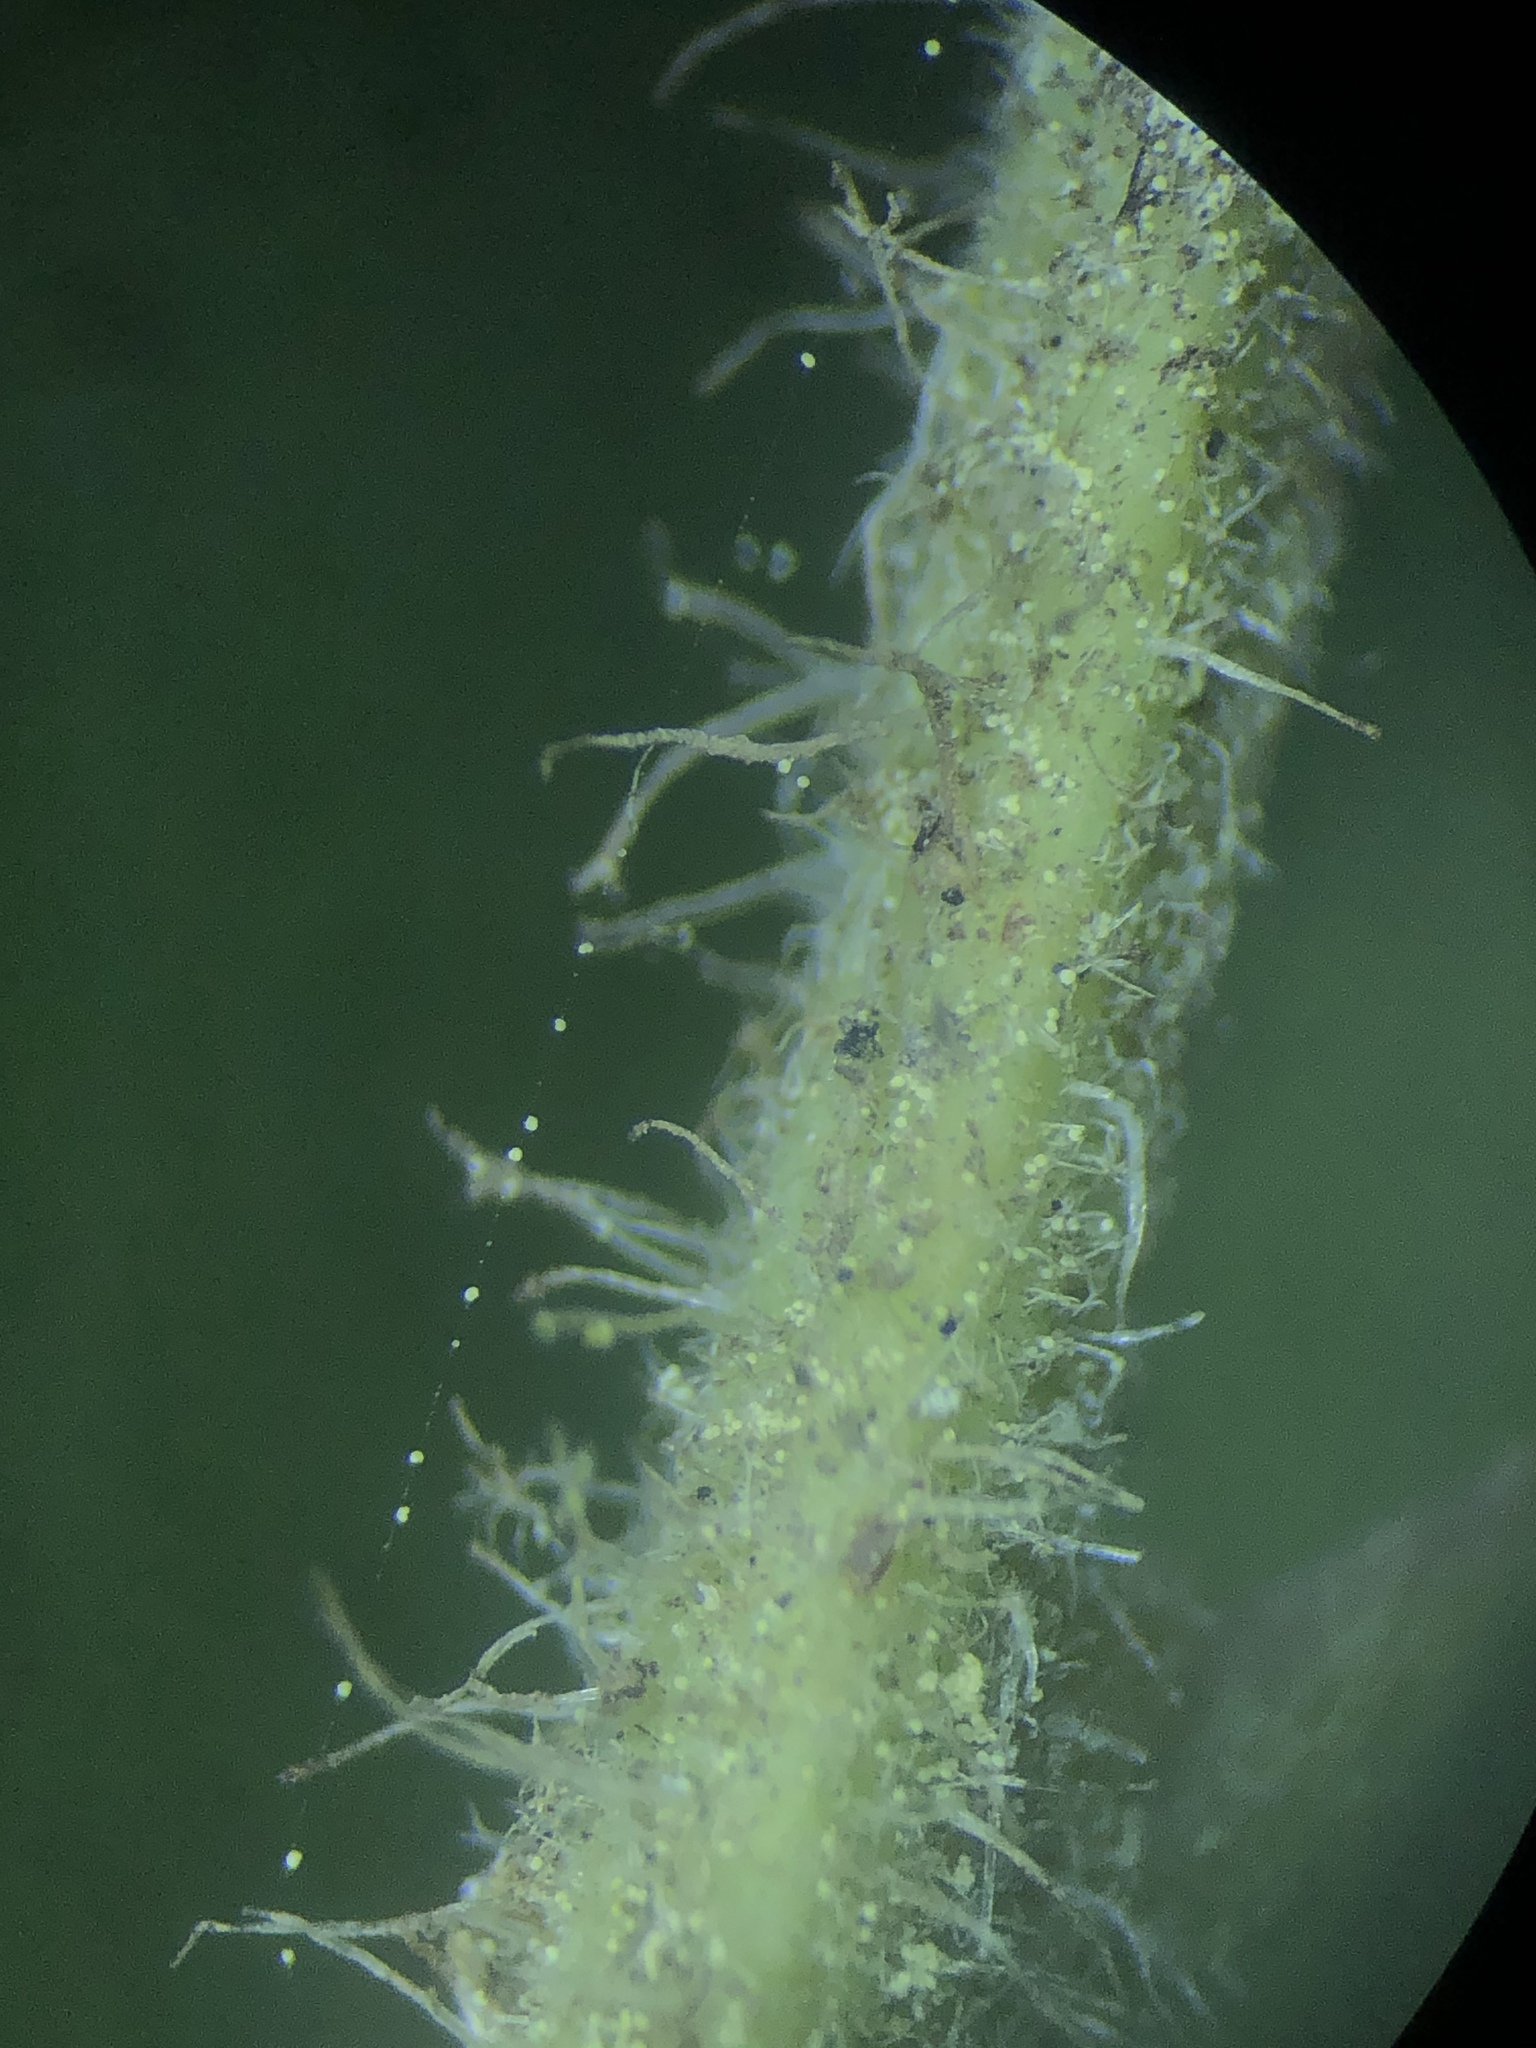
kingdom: Plantae
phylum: Tracheophyta
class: Magnoliopsida
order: Ericales
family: Ericaceae
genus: Arctostaphylos
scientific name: Arctostaphylos glandulosa
